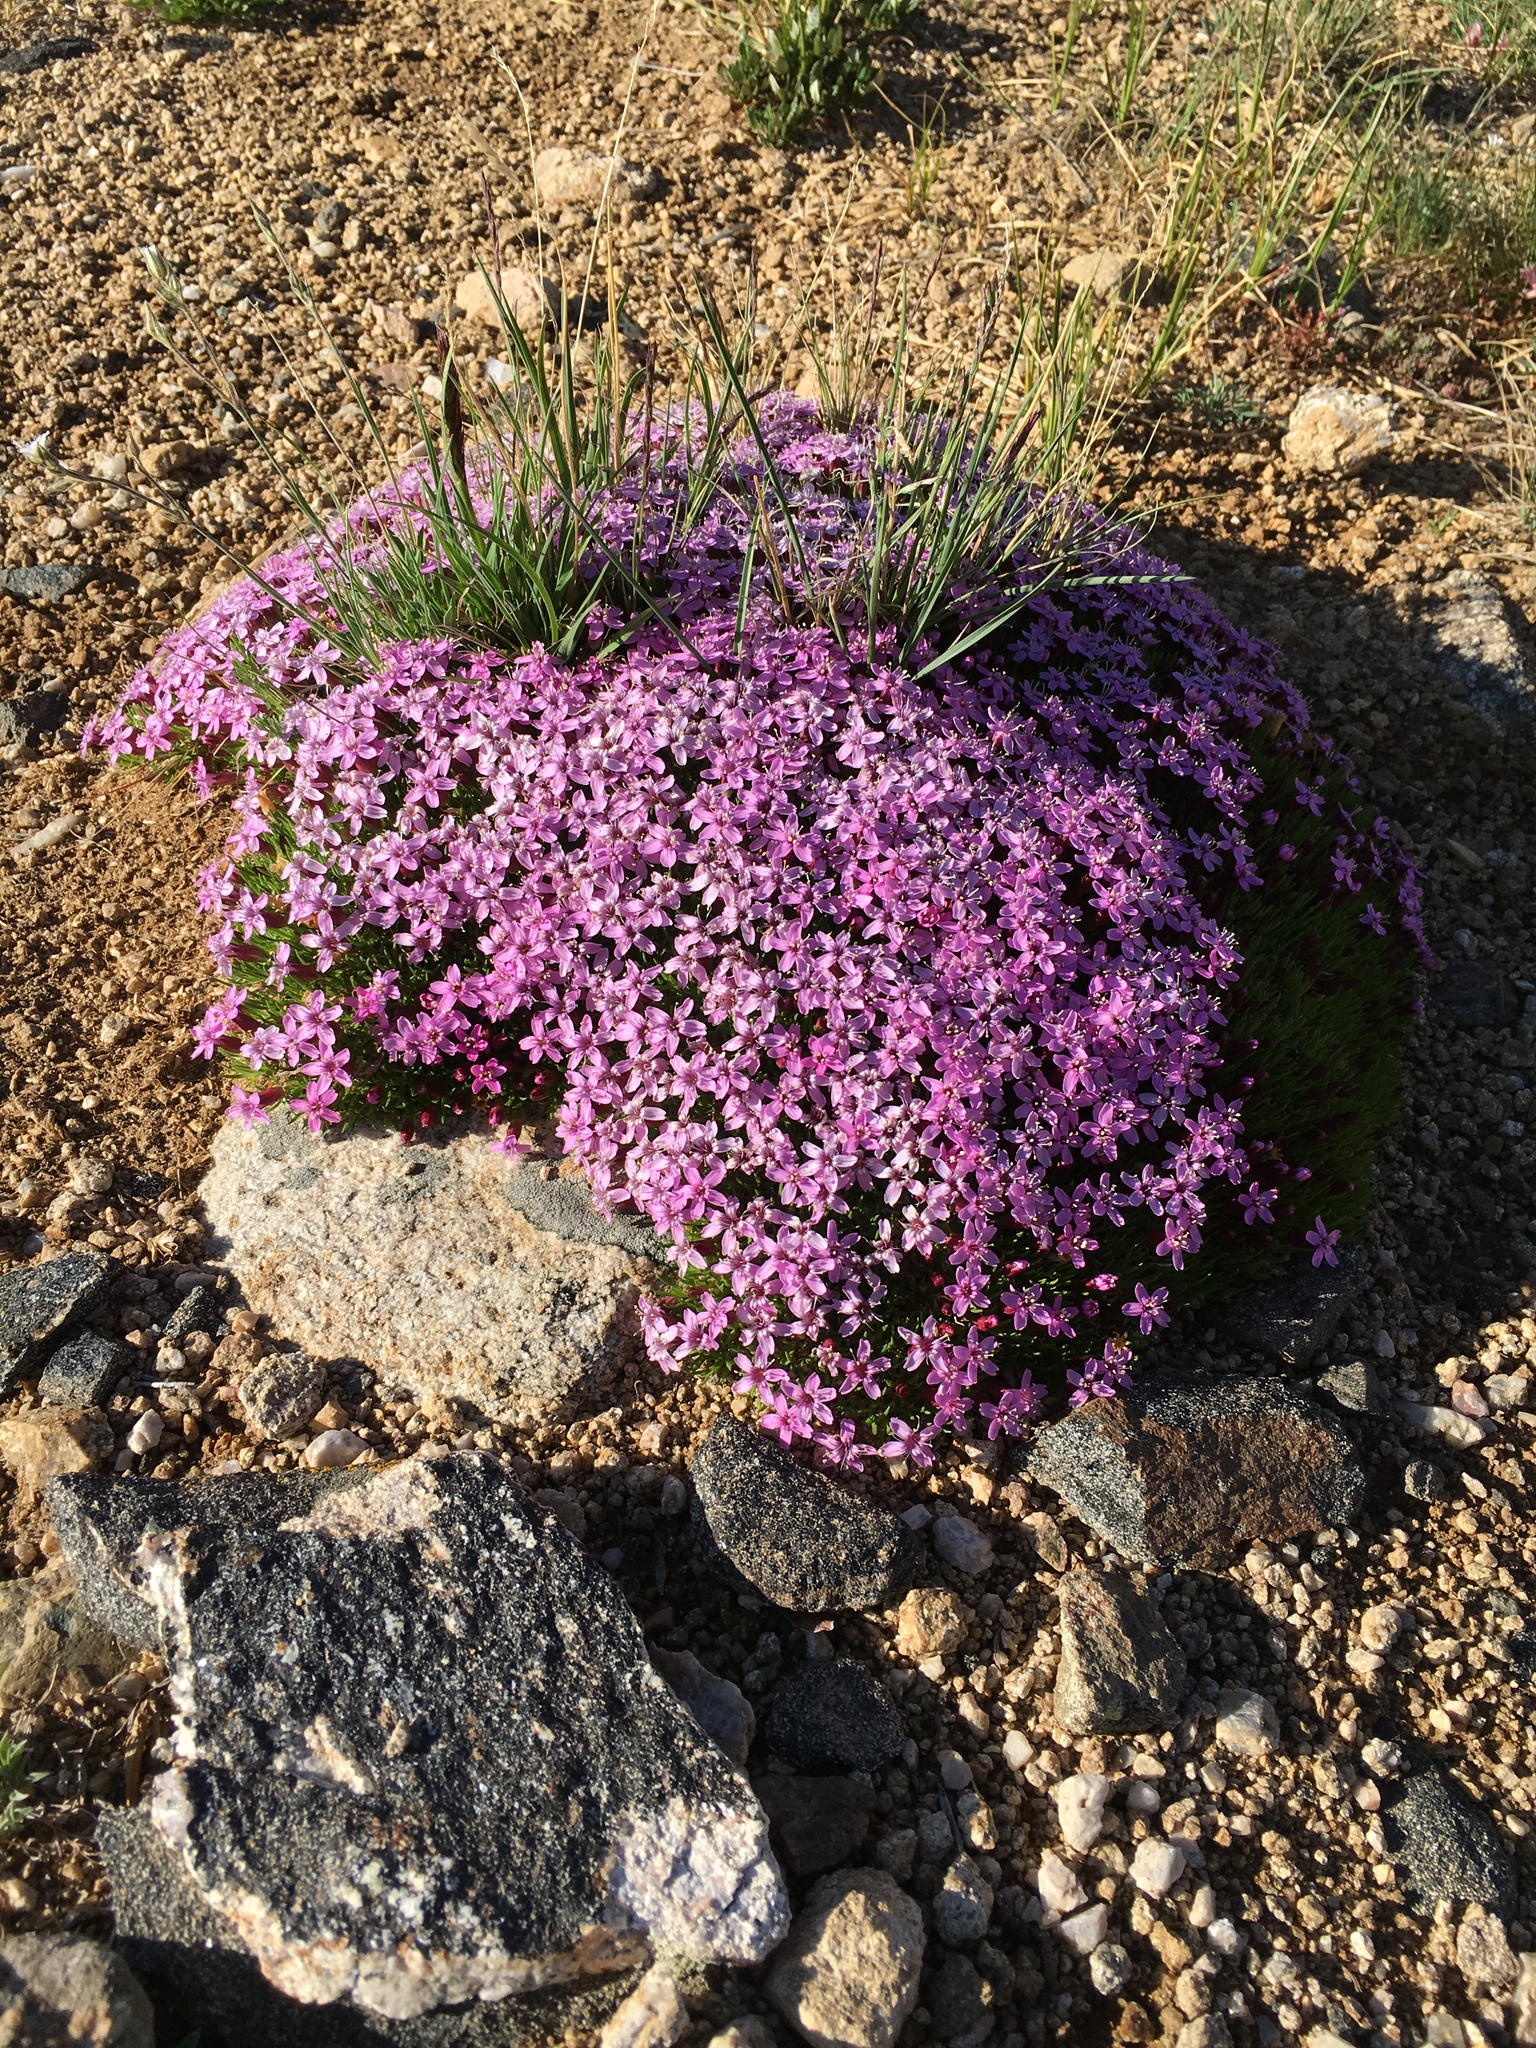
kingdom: Plantae
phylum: Tracheophyta
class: Magnoliopsida
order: Caryophyllales
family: Caryophyllaceae
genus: Silene
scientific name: Silene acaulis
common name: Moss campion
